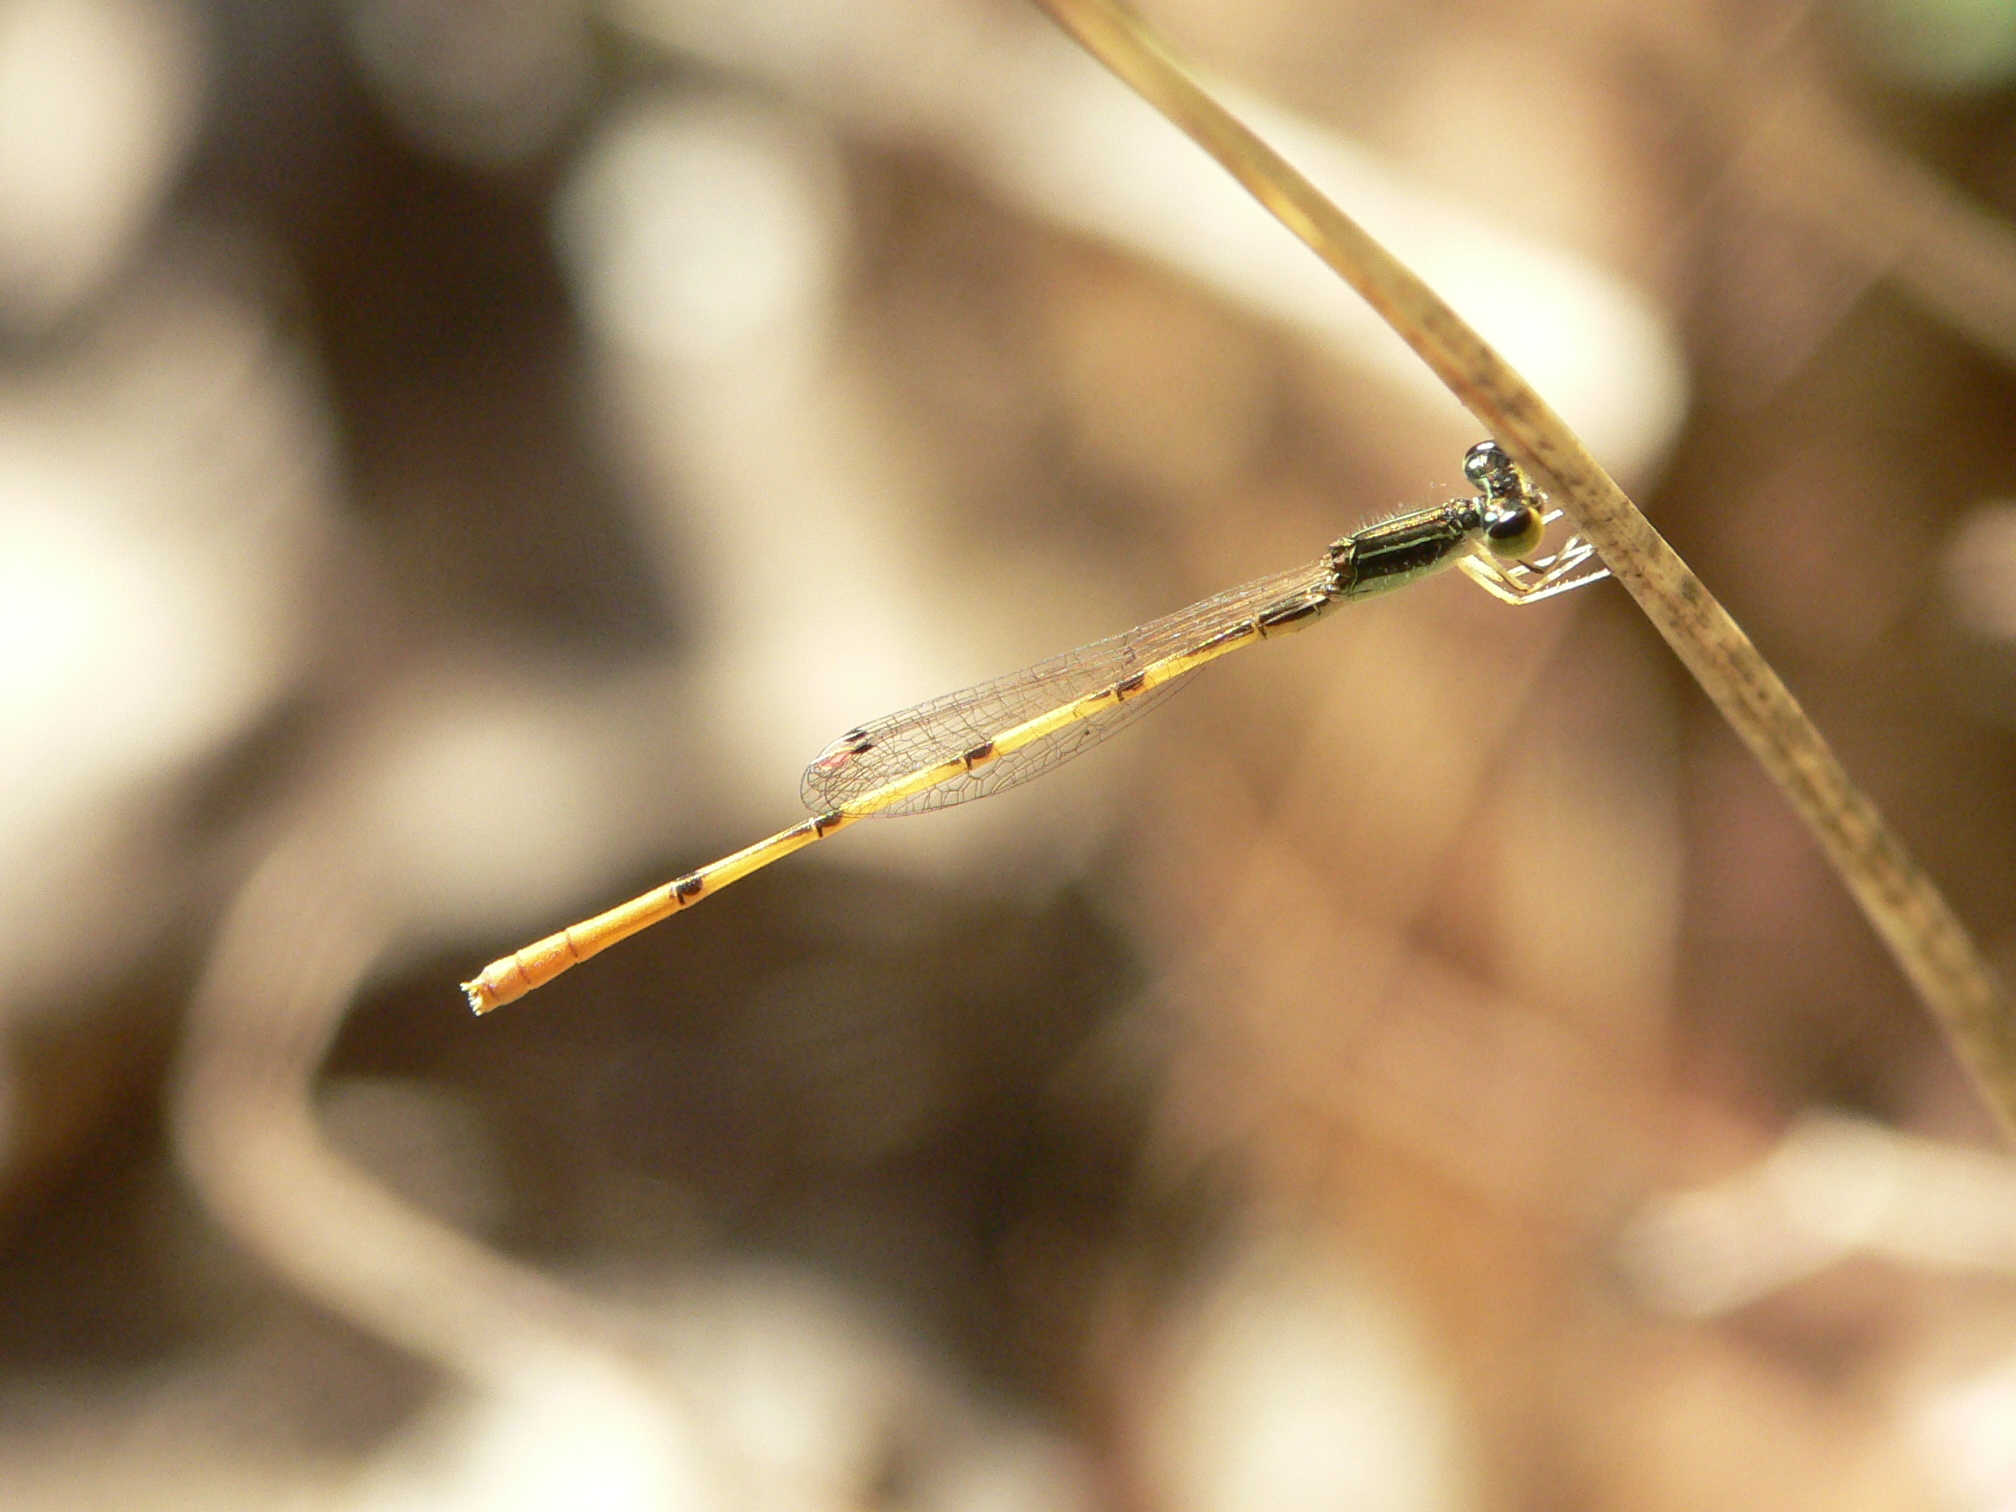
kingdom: Animalia
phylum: Arthropoda
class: Insecta
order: Odonata
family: Coenagrionidae
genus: Ischnura
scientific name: Ischnura hastata
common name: Citrine forktail
